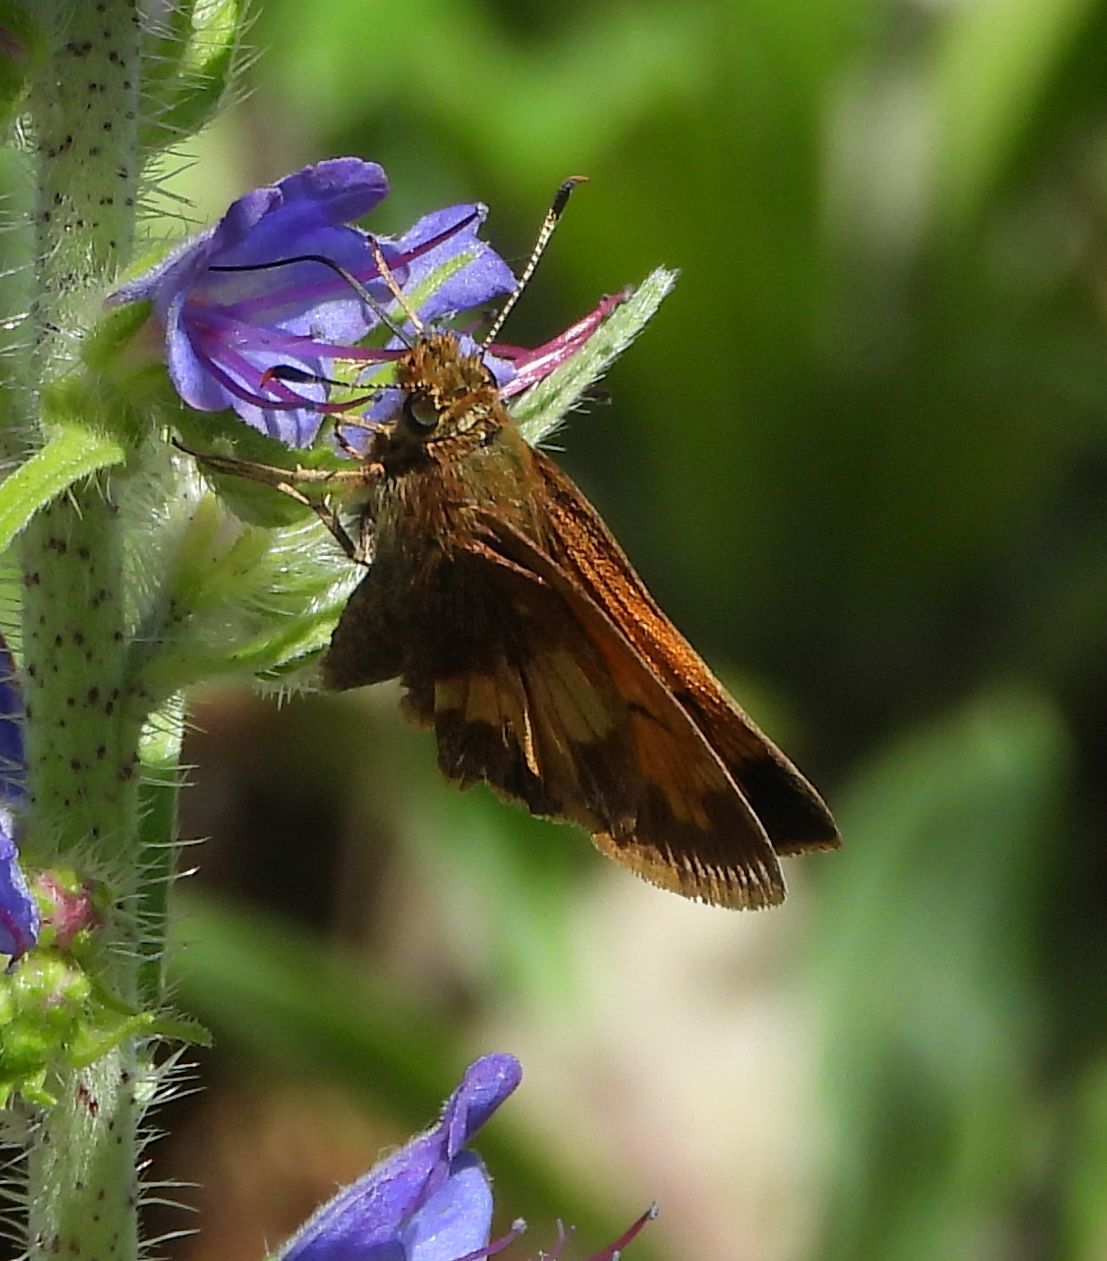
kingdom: Animalia
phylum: Arthropoda
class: Insecta
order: Lepidoptera
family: Hesperiidae
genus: Lon
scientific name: Lon hobomok
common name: Hobomok skipper
